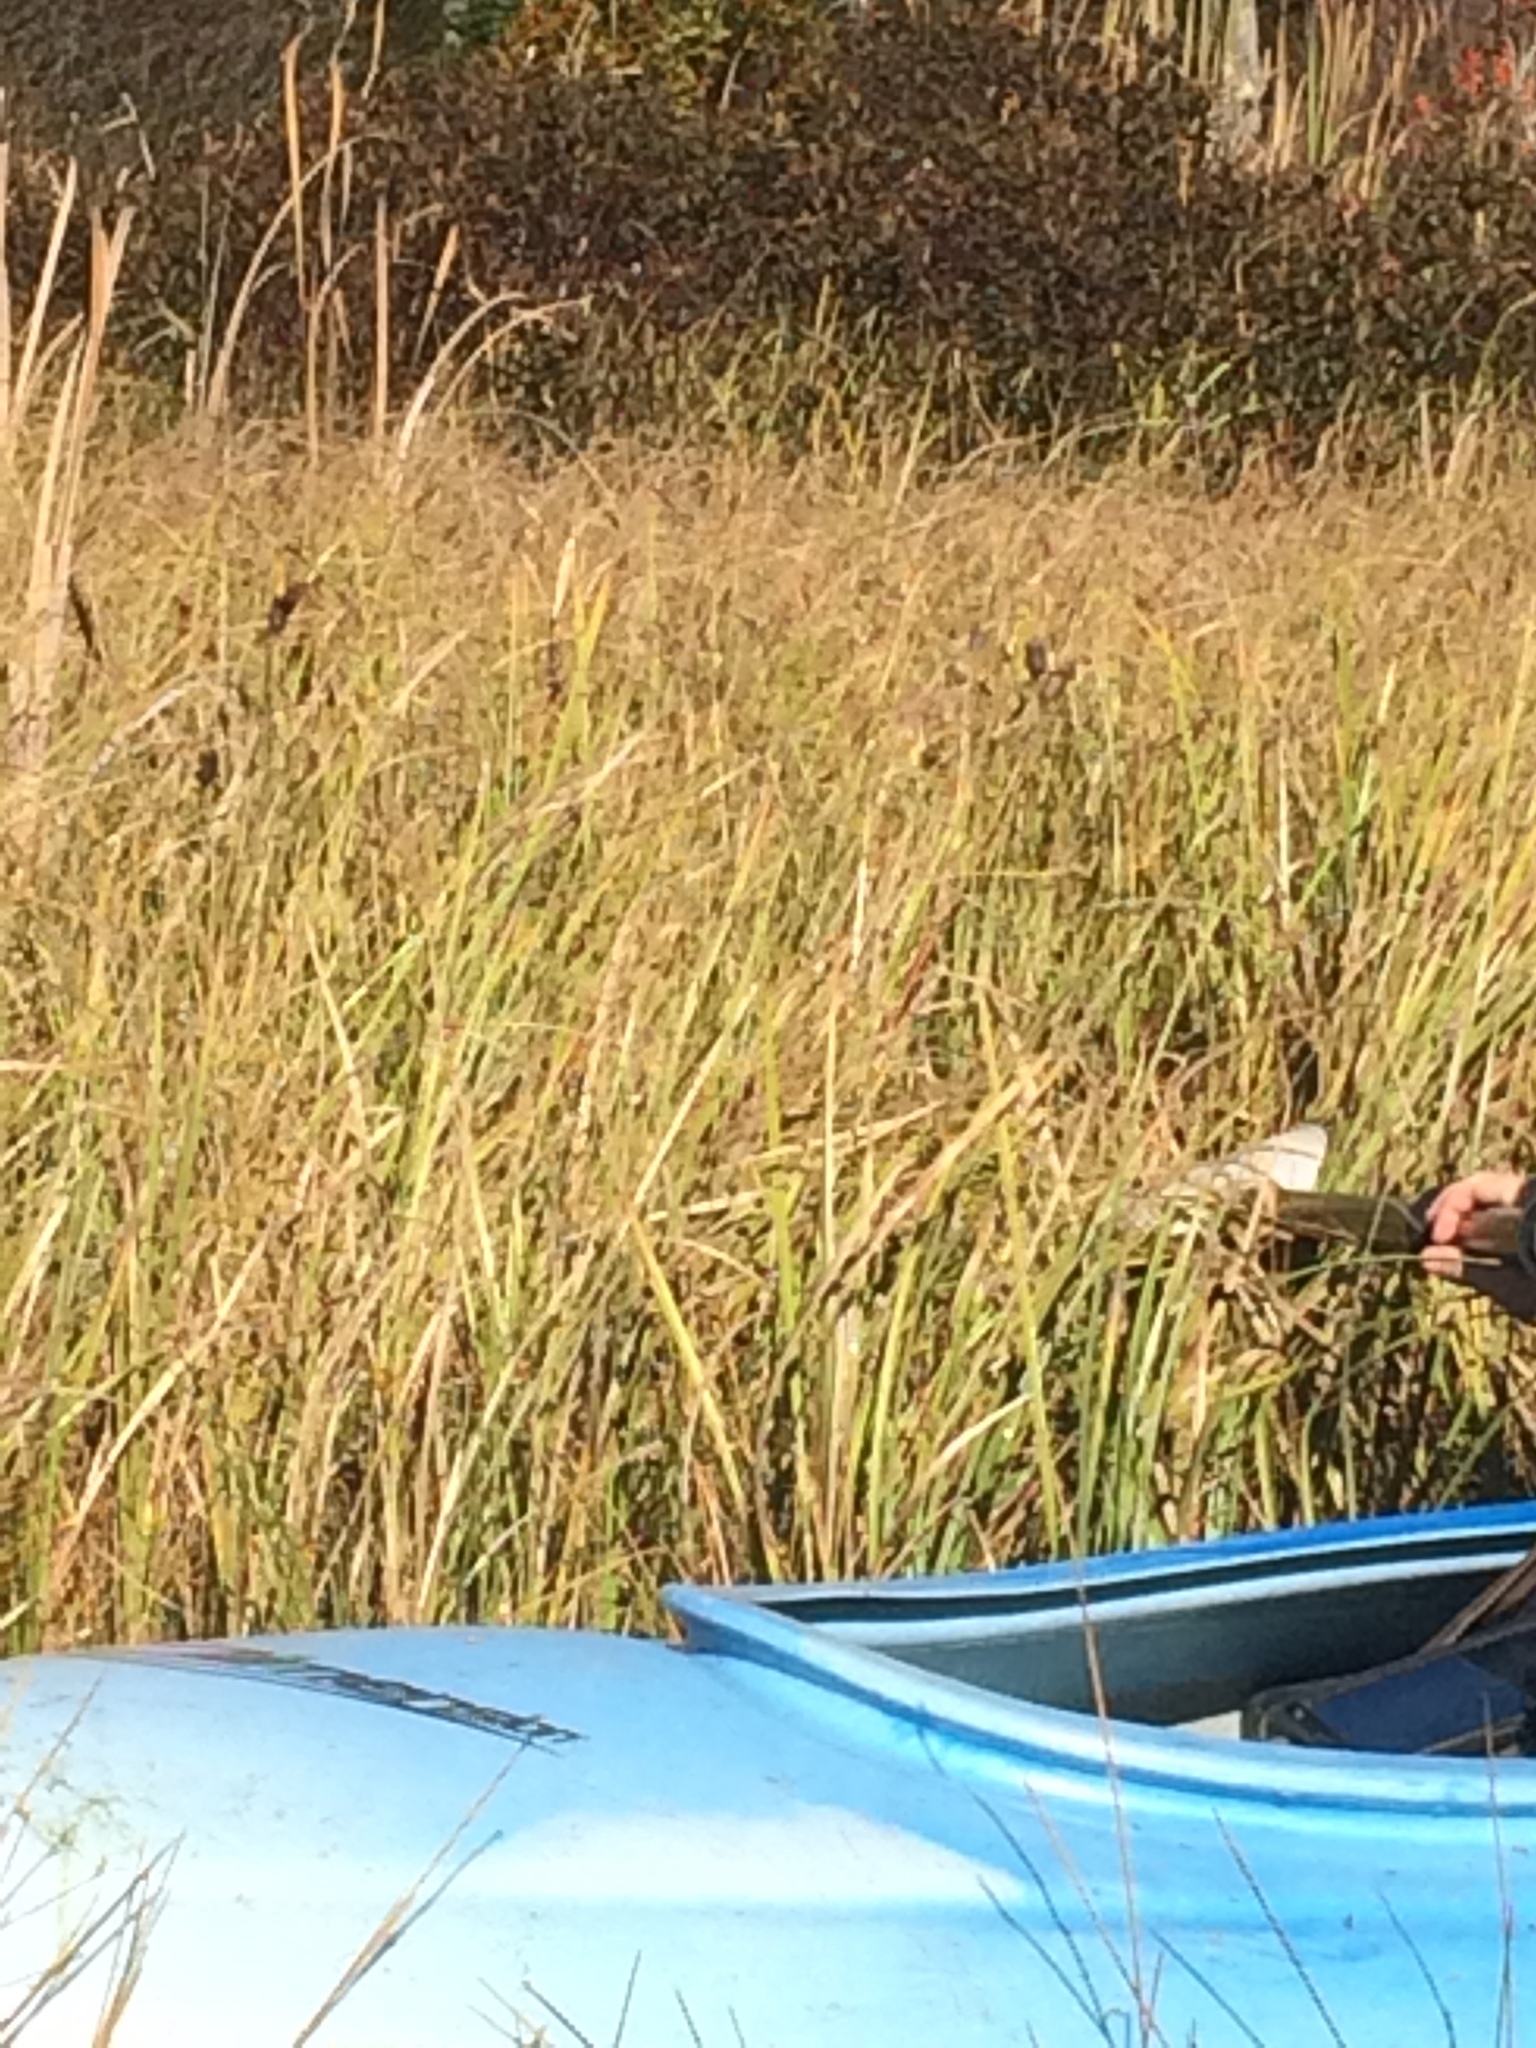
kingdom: Plantae
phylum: Tracheophyta
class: Liliopsida
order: Asparagales
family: Iridaceae
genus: Iris
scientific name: Iris versicolor
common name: Purple iris
